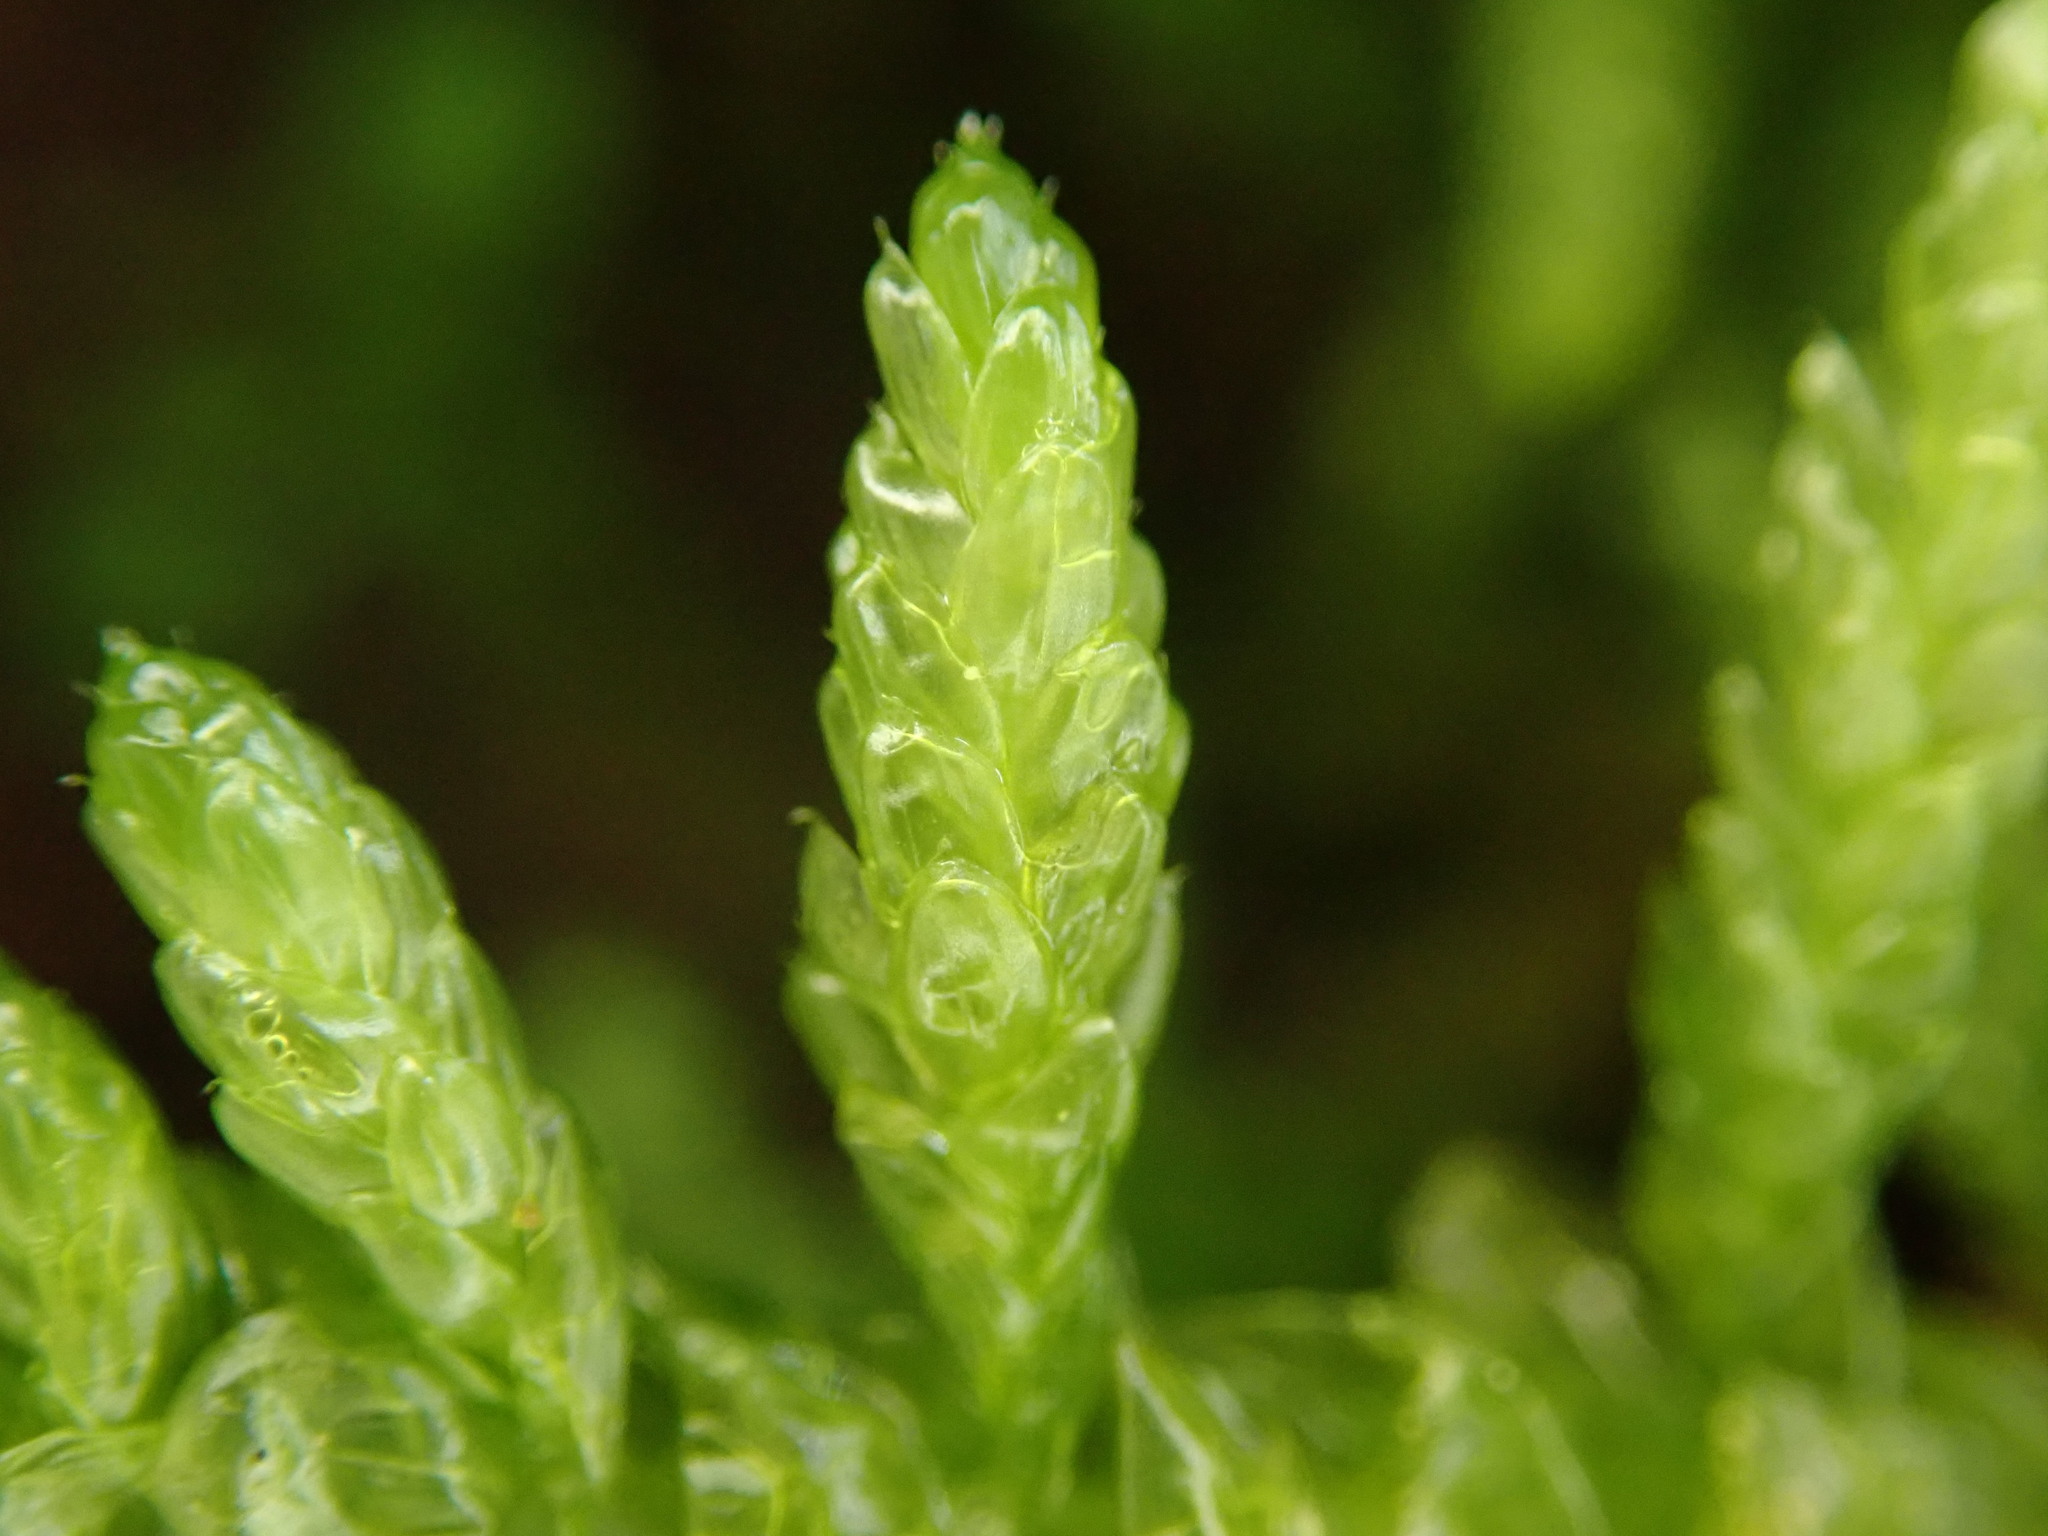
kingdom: Plantae
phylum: Bryophyta
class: Bryopsida
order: Hypnales
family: Brachytheciaceae
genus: Pseudoscleropodium
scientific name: Pseudoscleropodium purum
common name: Neat feather-moss
